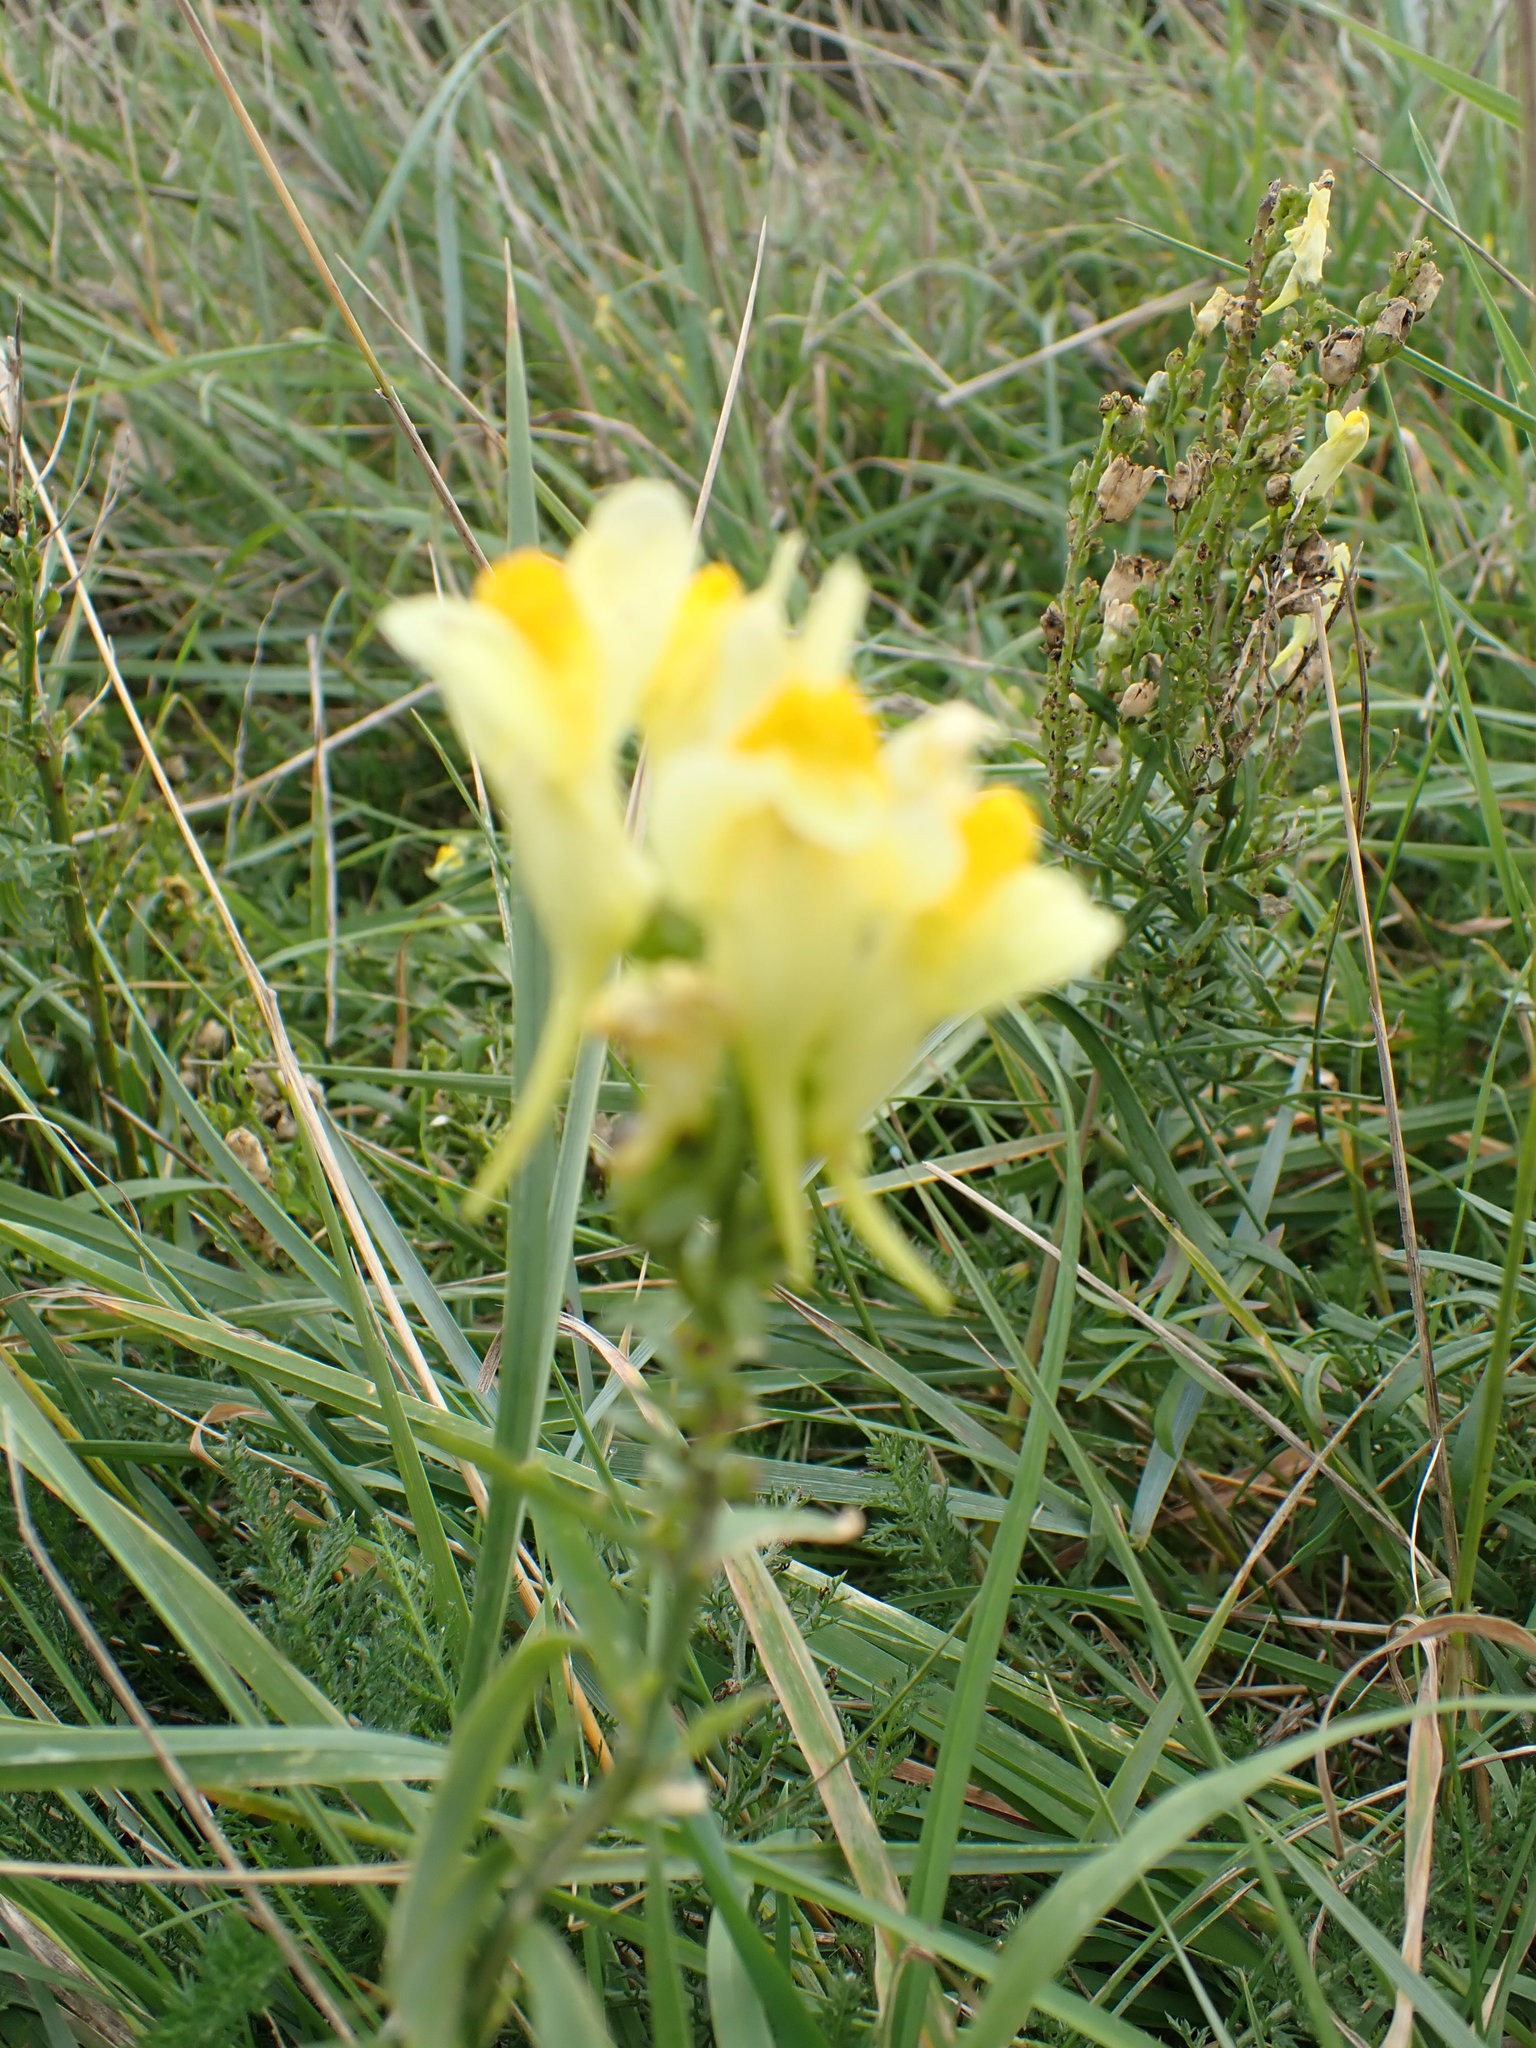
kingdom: Plantae
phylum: Tracheophyta
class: Magnoliopsida
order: Lamiales
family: Plantaginaceae
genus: Linaria
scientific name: Linaria vulgaris
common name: Butter and eggs
